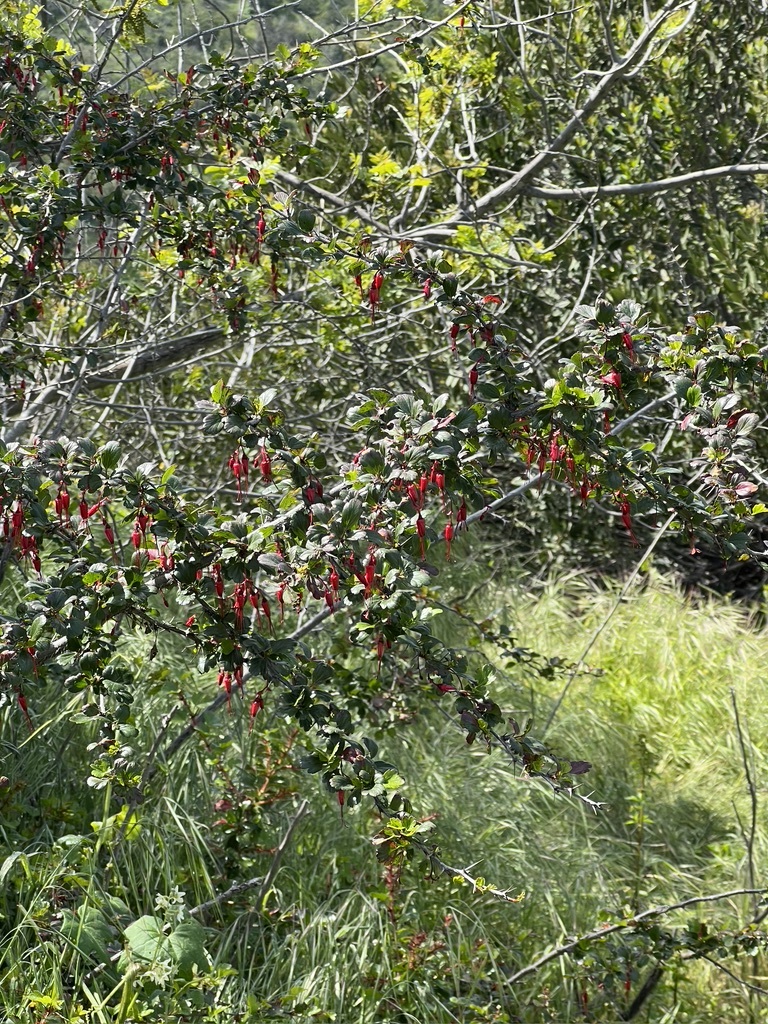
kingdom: Plantae
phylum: Tracheophyta
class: Magnoliopsida
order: Saxifragales
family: Grossulariaceae
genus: Ribes
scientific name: Ribes speciosum
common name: Fuchsia-flower gooseberry
